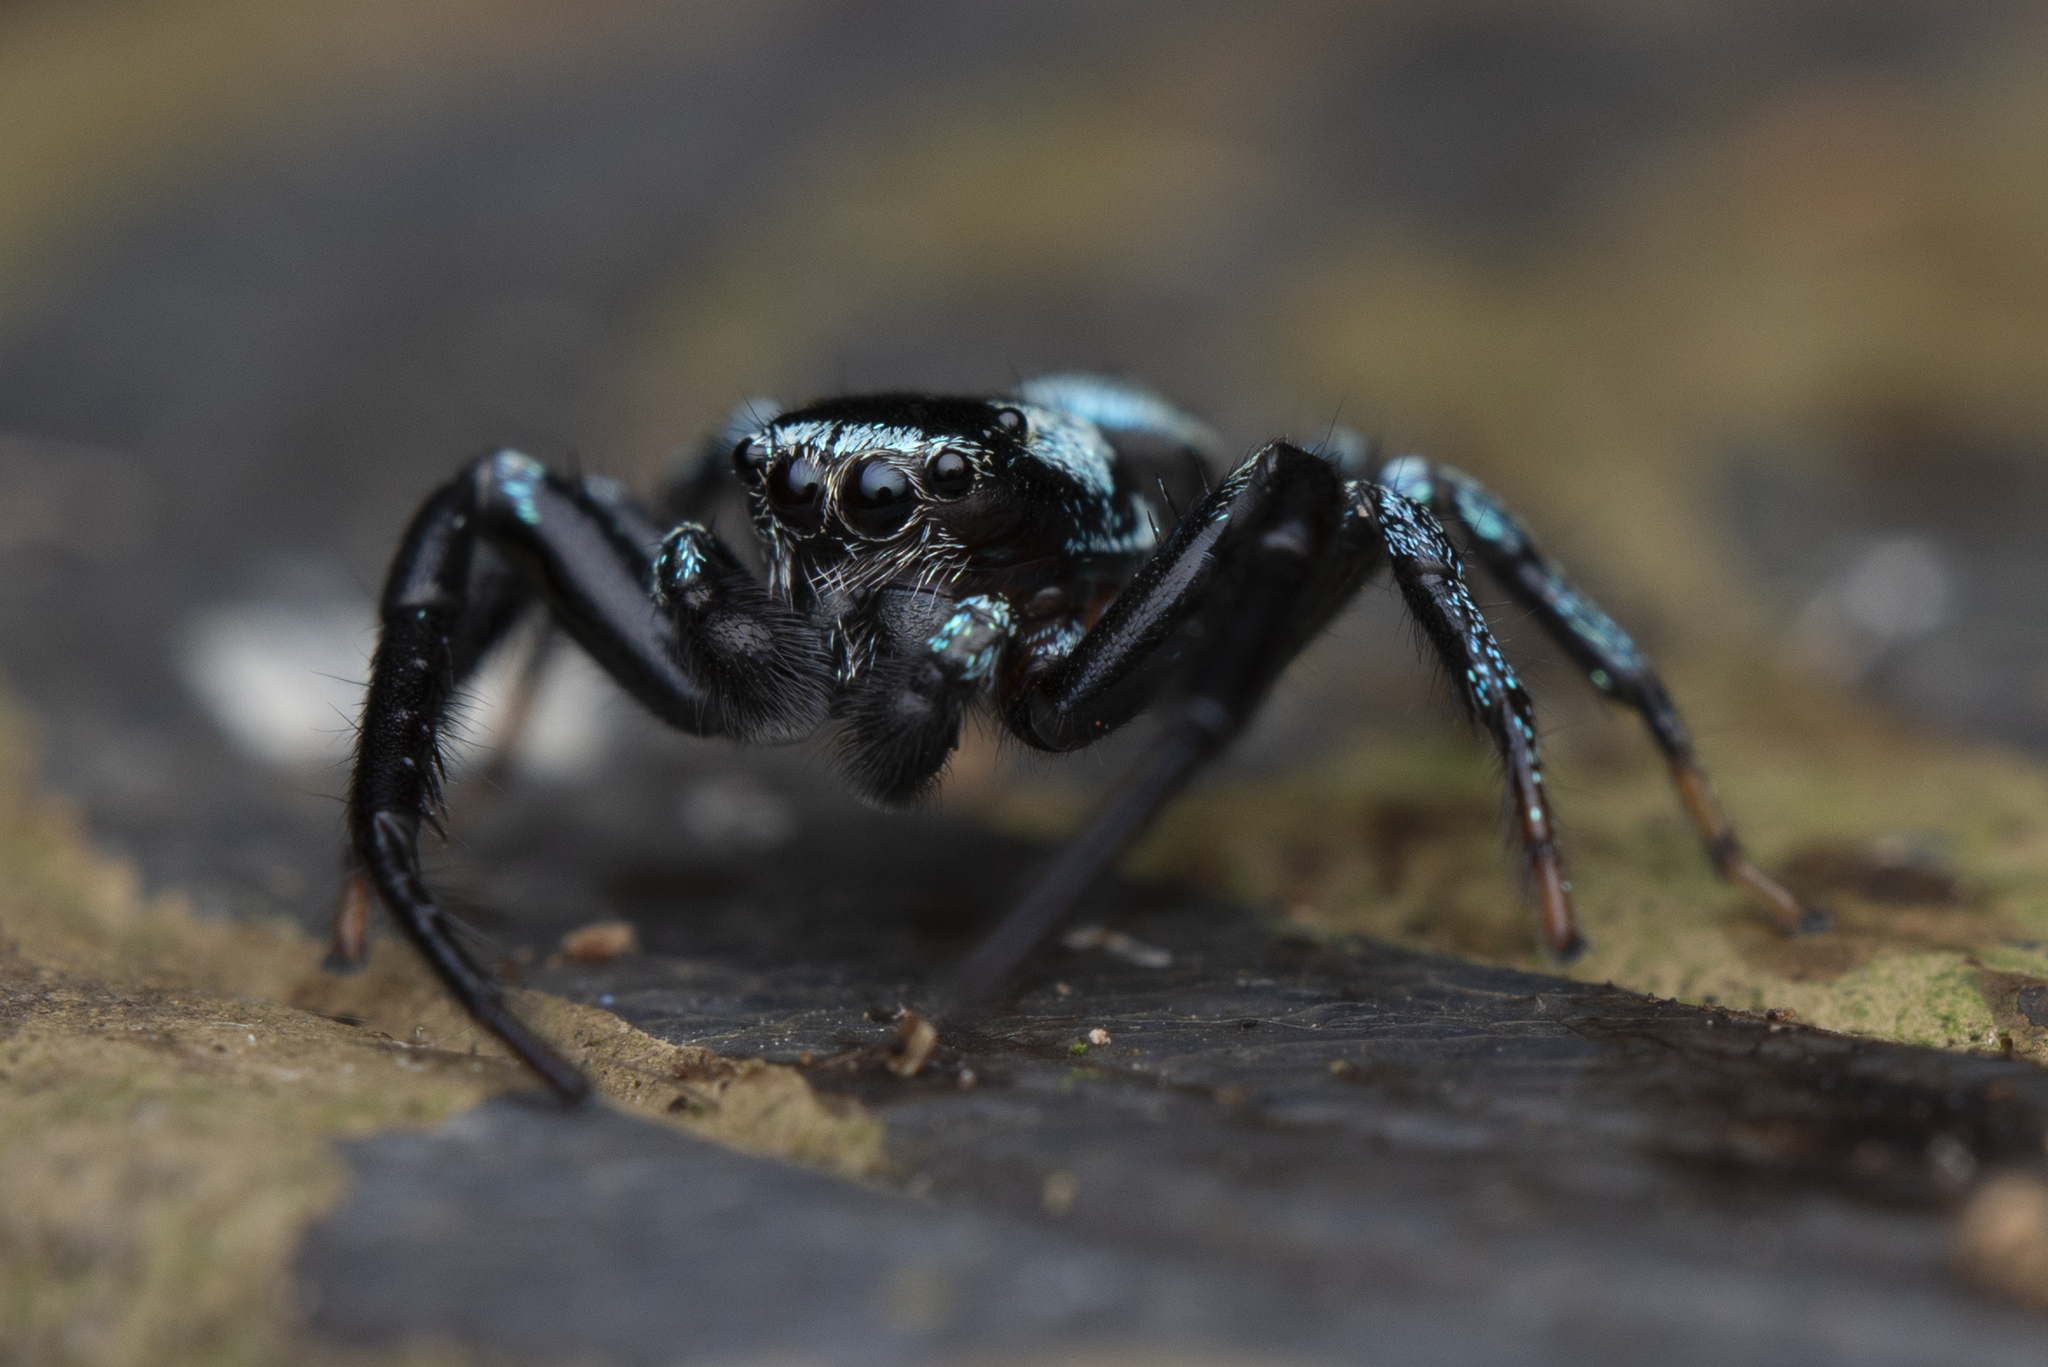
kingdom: Animalia
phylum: Arthropoda
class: Arachnida
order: Araneae
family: Salticidae
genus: Thiania
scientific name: Thiania suboppressa
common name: Jumping spider
